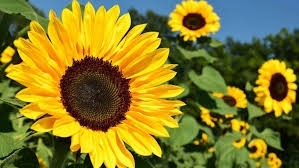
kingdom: Plantae
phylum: Tracheophyta
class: Magnoliopsida
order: Fabales
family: Fabaceae
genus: Trifolium
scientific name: Trifolium repens
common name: White clover
